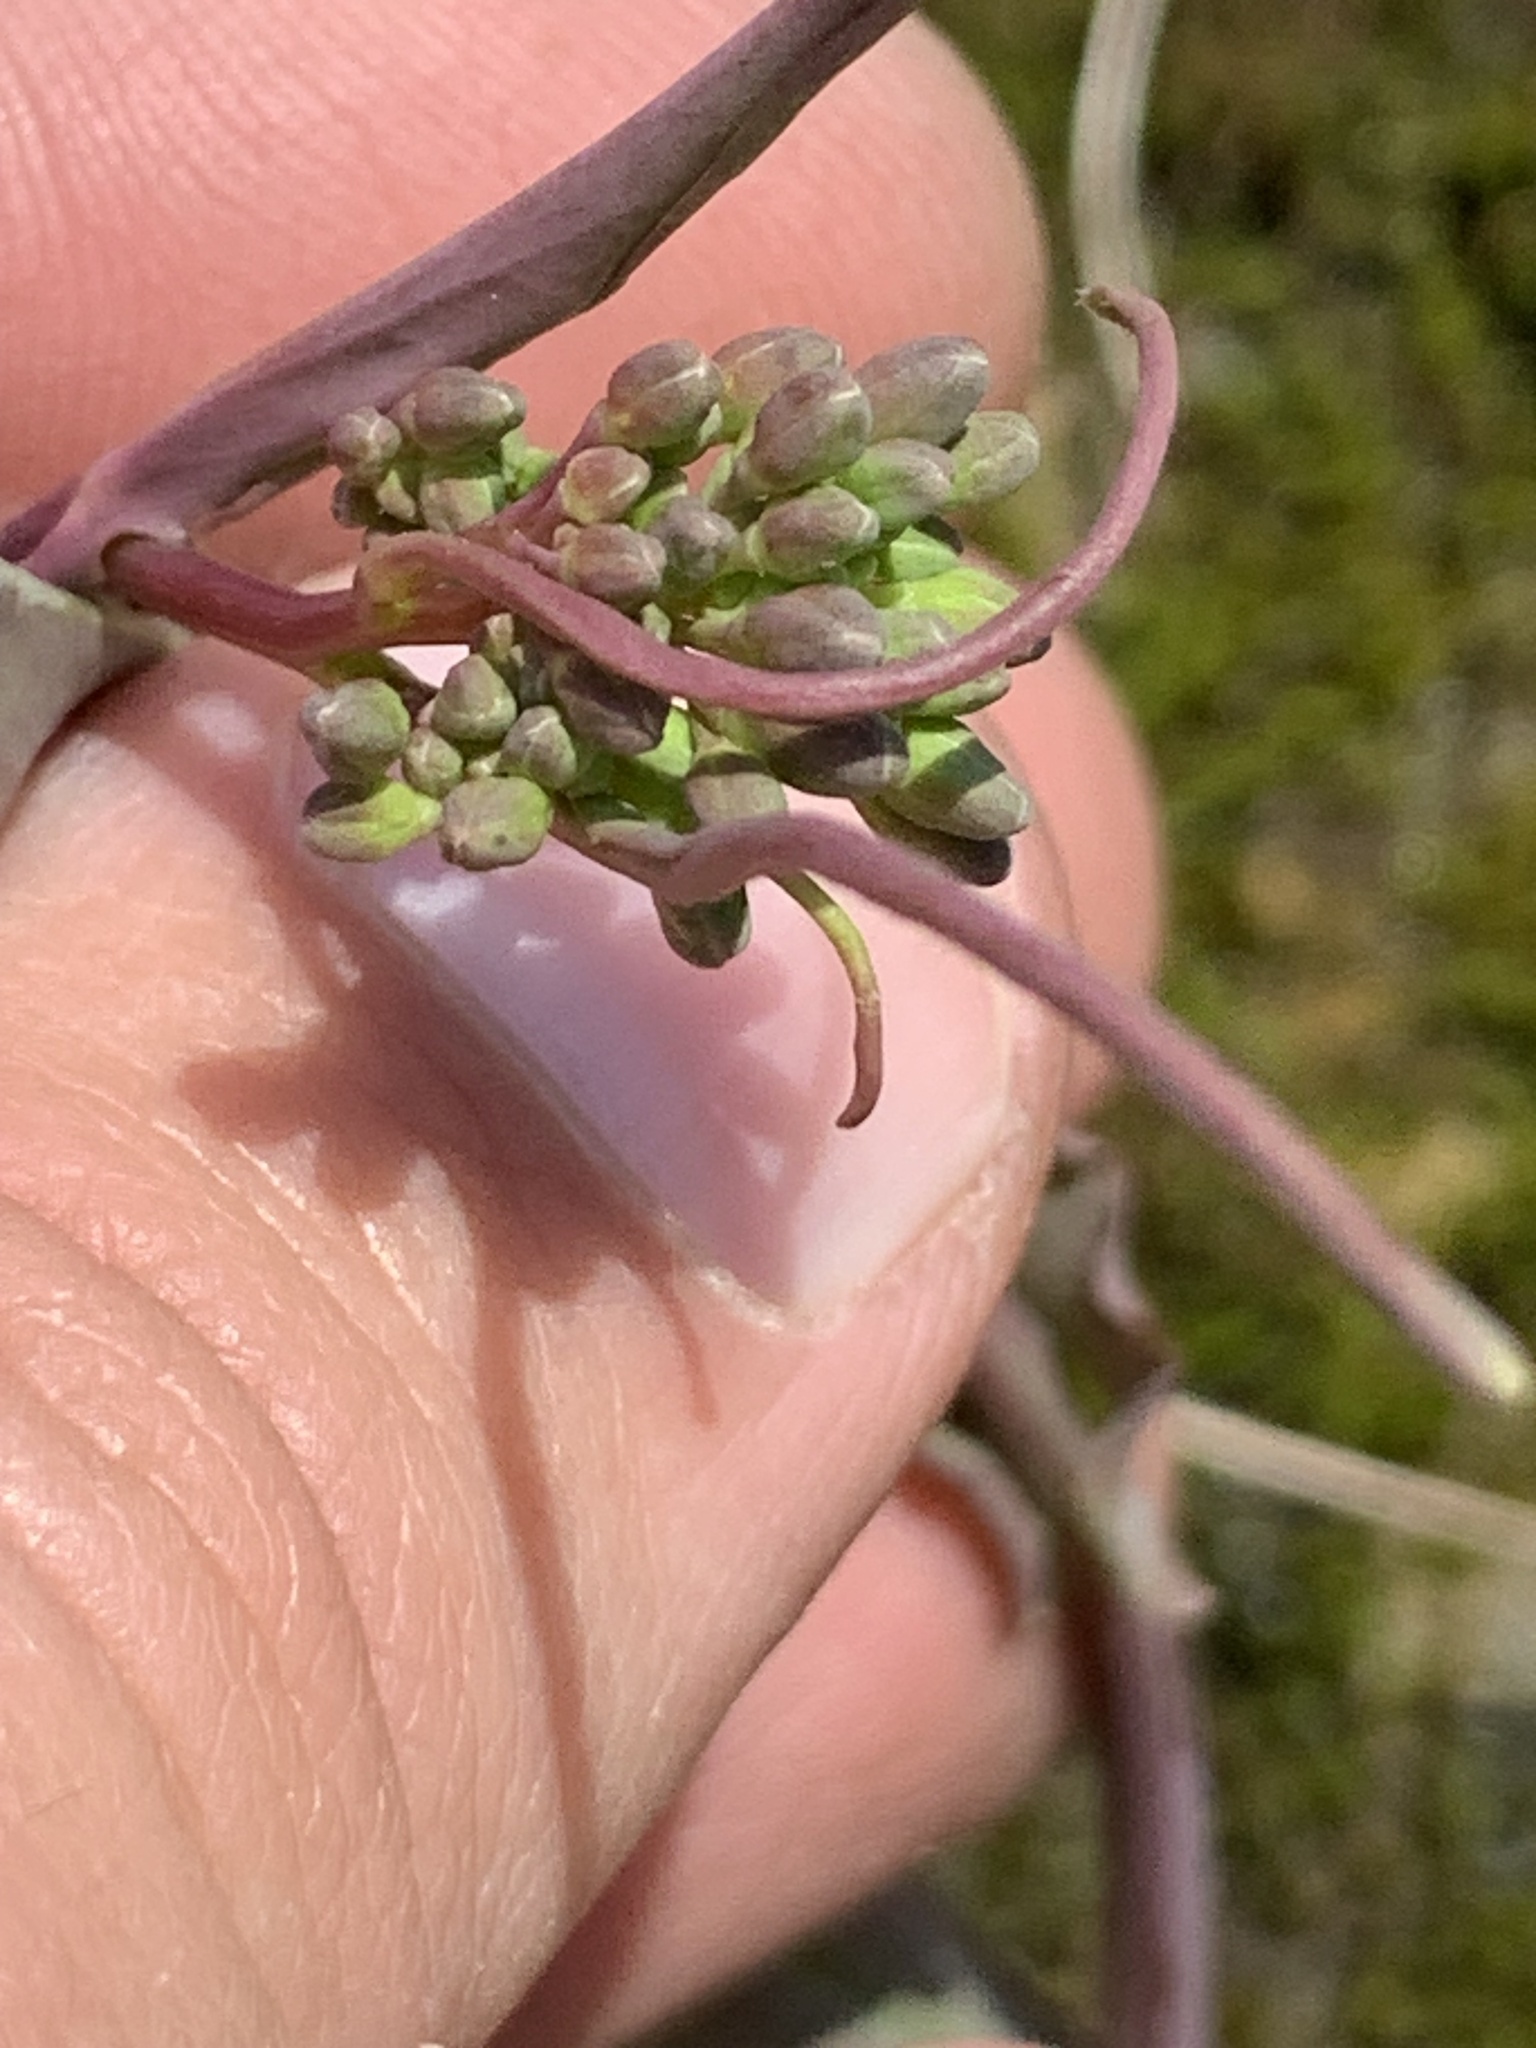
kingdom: Plantae
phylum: Tracheophyta
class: Magnoliopsida
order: Brassicales
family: Brassicaceae
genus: Borodinia
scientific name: Borodinia laevigata
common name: Smooth rockcress
